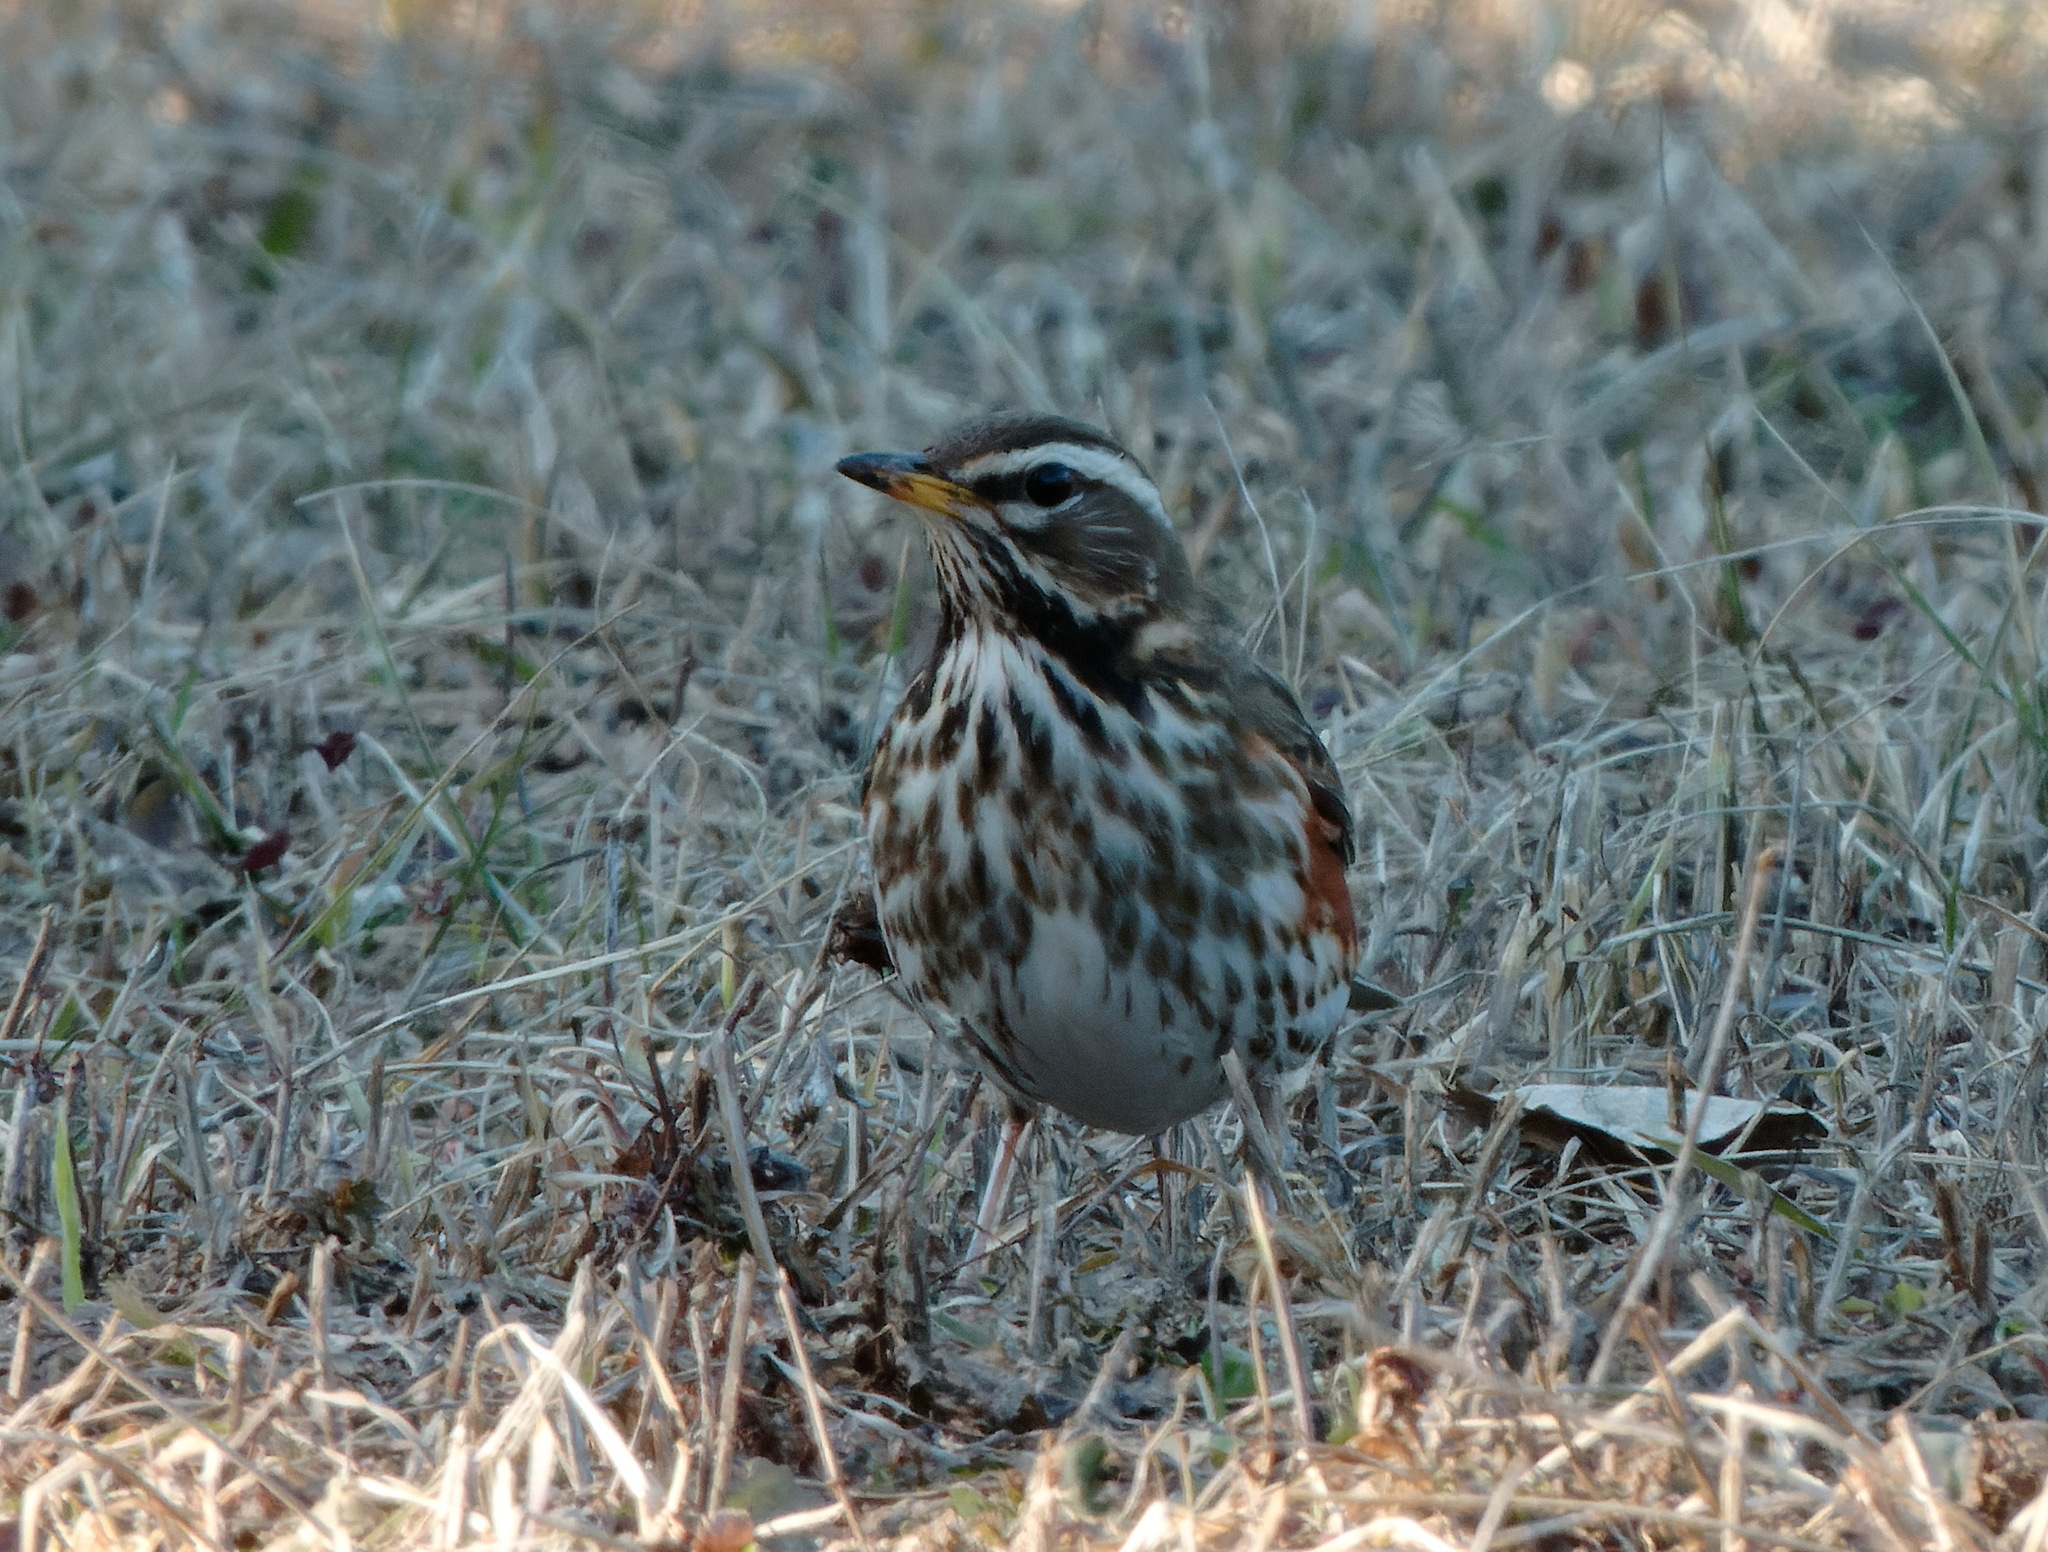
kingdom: Animalia
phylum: Chordata
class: Aves
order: Passeriformes
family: Turdidae
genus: Turdus
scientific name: Turdus iliacus
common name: Redwing
